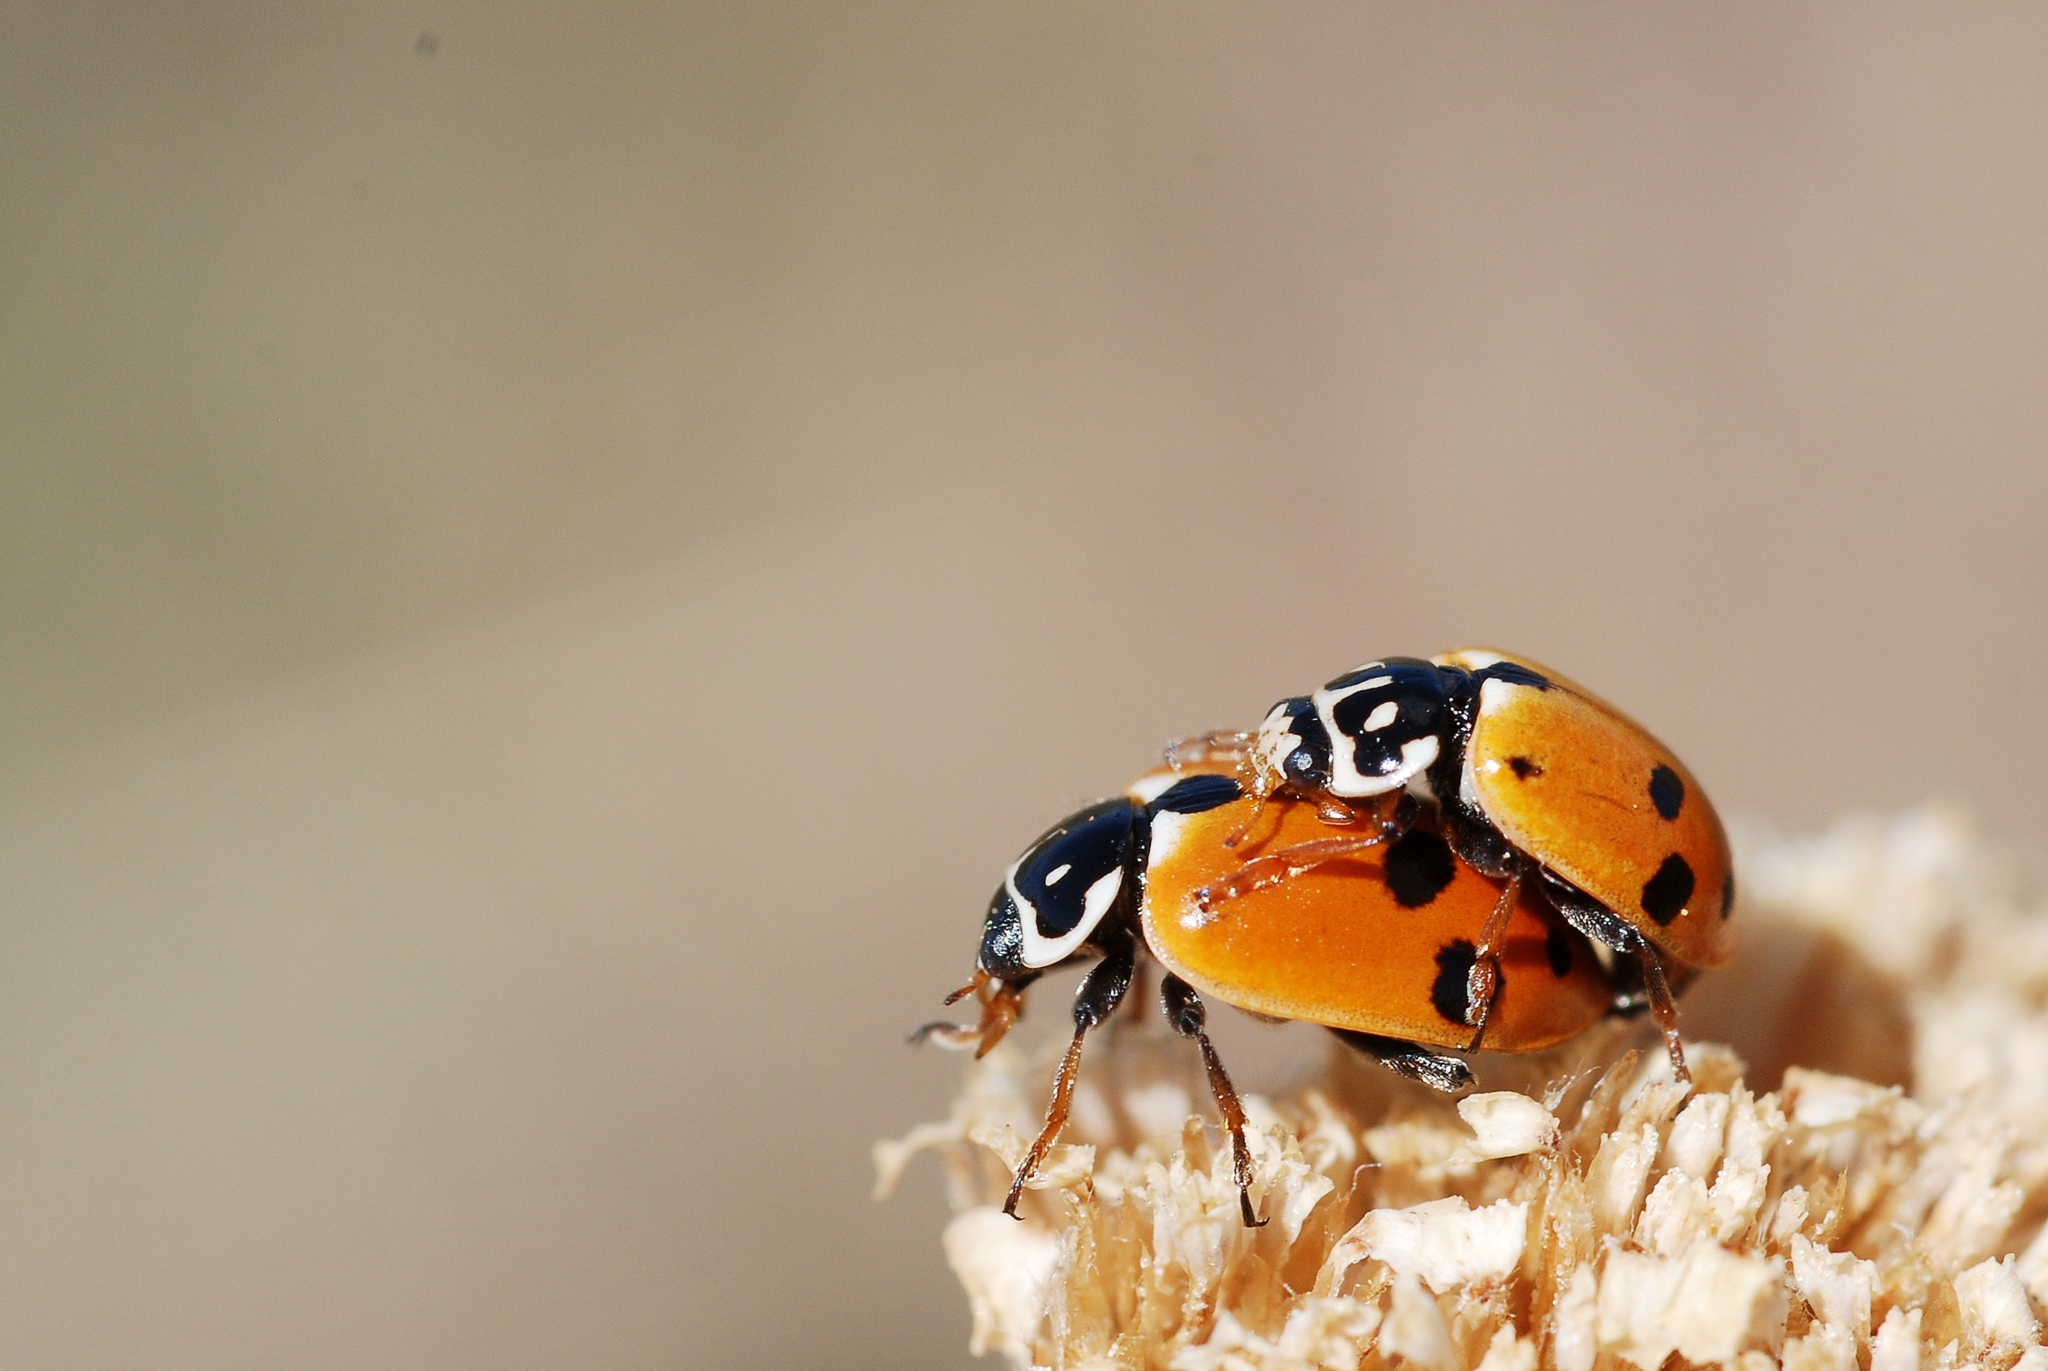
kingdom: Animalia
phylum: Arthropoda
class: Insecta
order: Coleoptera
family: Coccinellidae
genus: Hippodamia
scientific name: Hippodamia variegata
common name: Ladybird beetle
